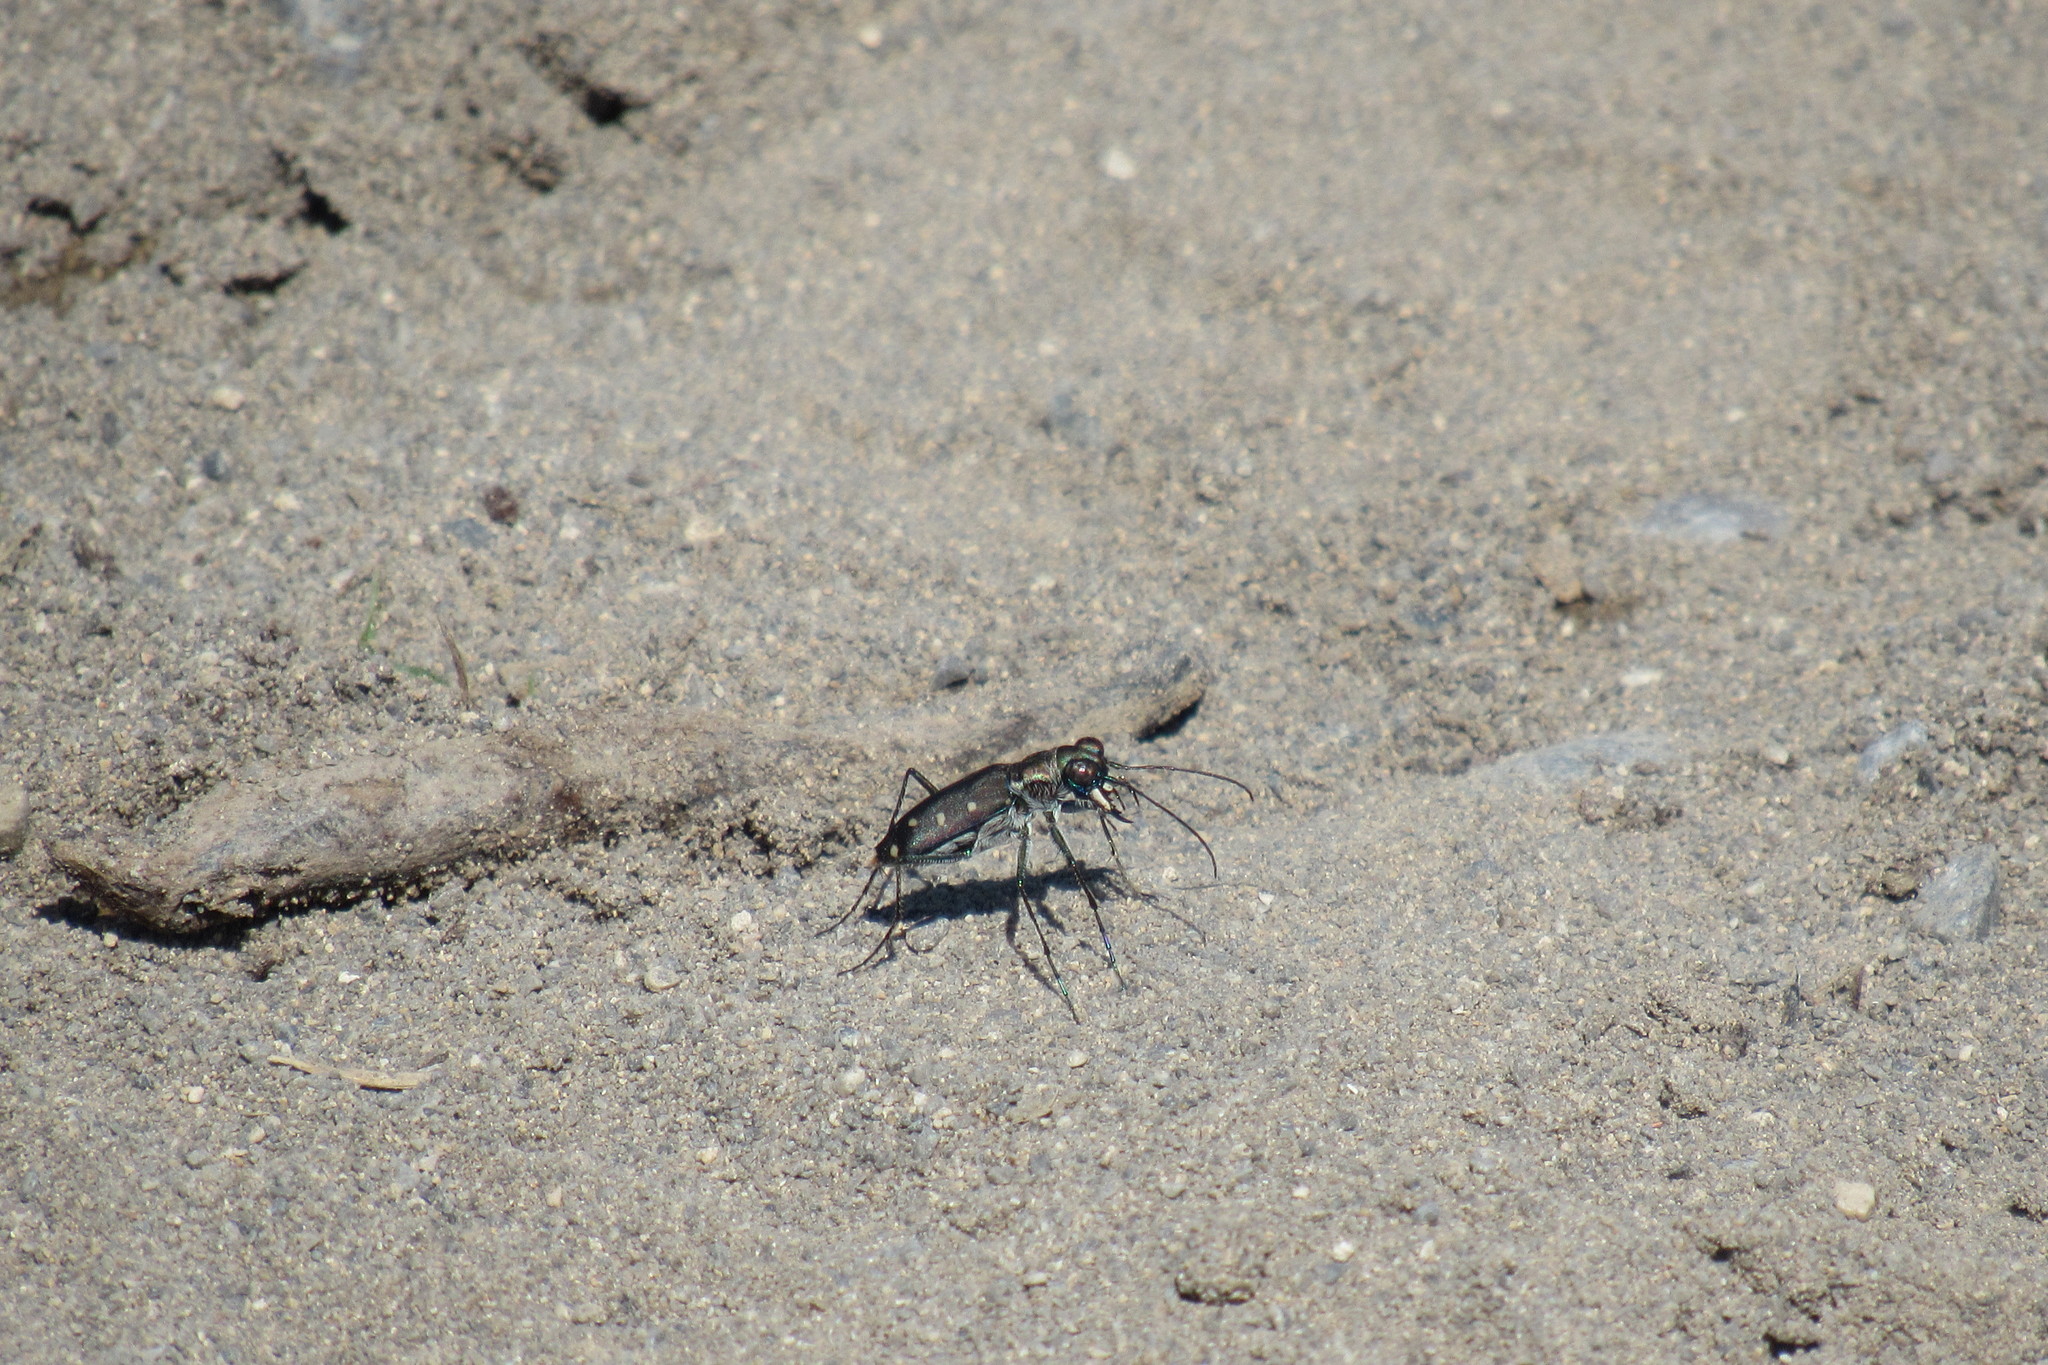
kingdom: Animalia
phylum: Arthropoda
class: Insecta
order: Coleoptera
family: Carabidae
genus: Cicindela
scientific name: Cicindela ocellata
